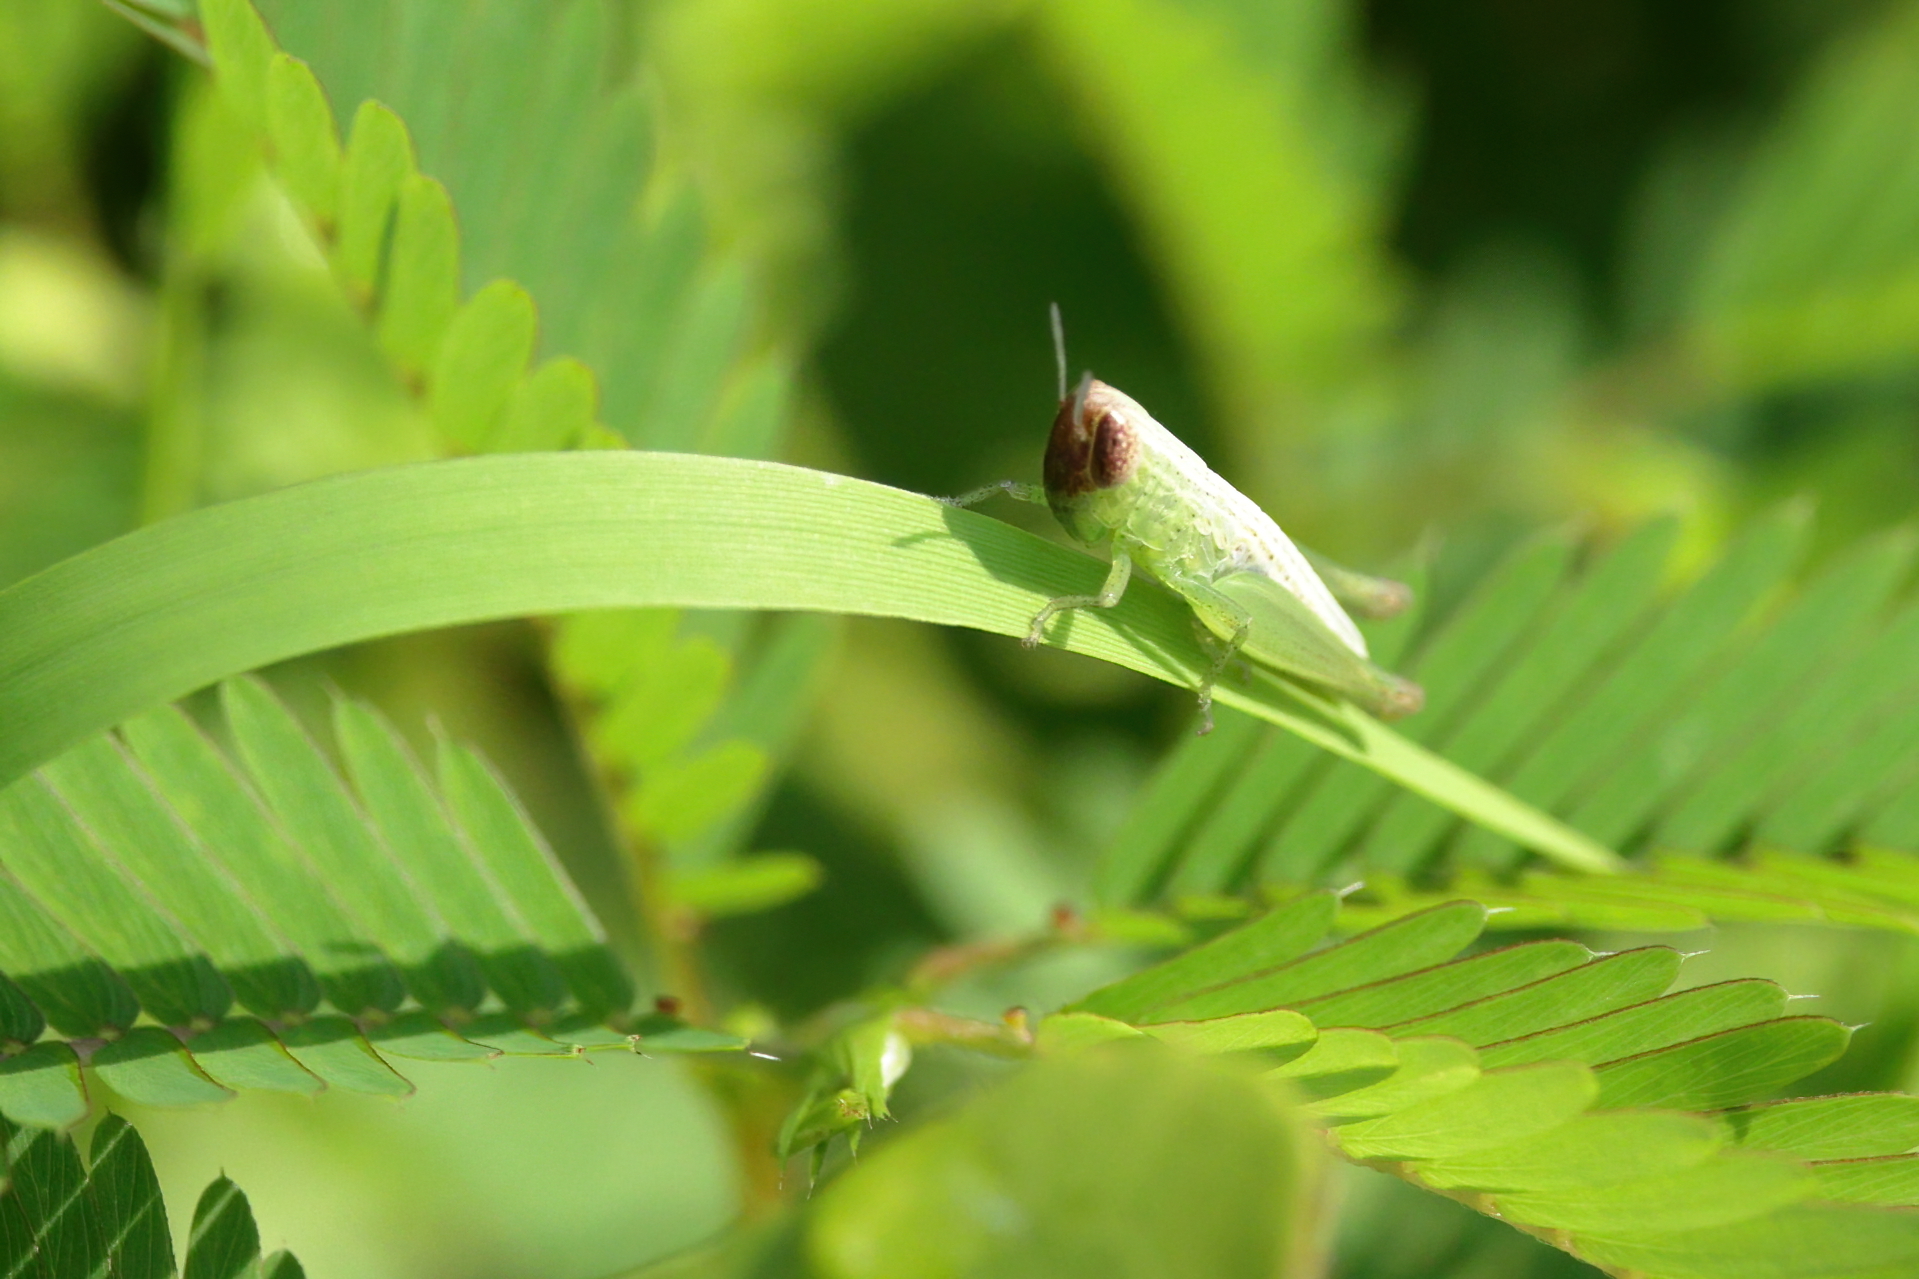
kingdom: Animalia
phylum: Arthropoda
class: Insecta
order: Orthoptera
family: Acrididae
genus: Amblytropidia
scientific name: Amblytropidia mysteca
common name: Brown winter grasshopper
